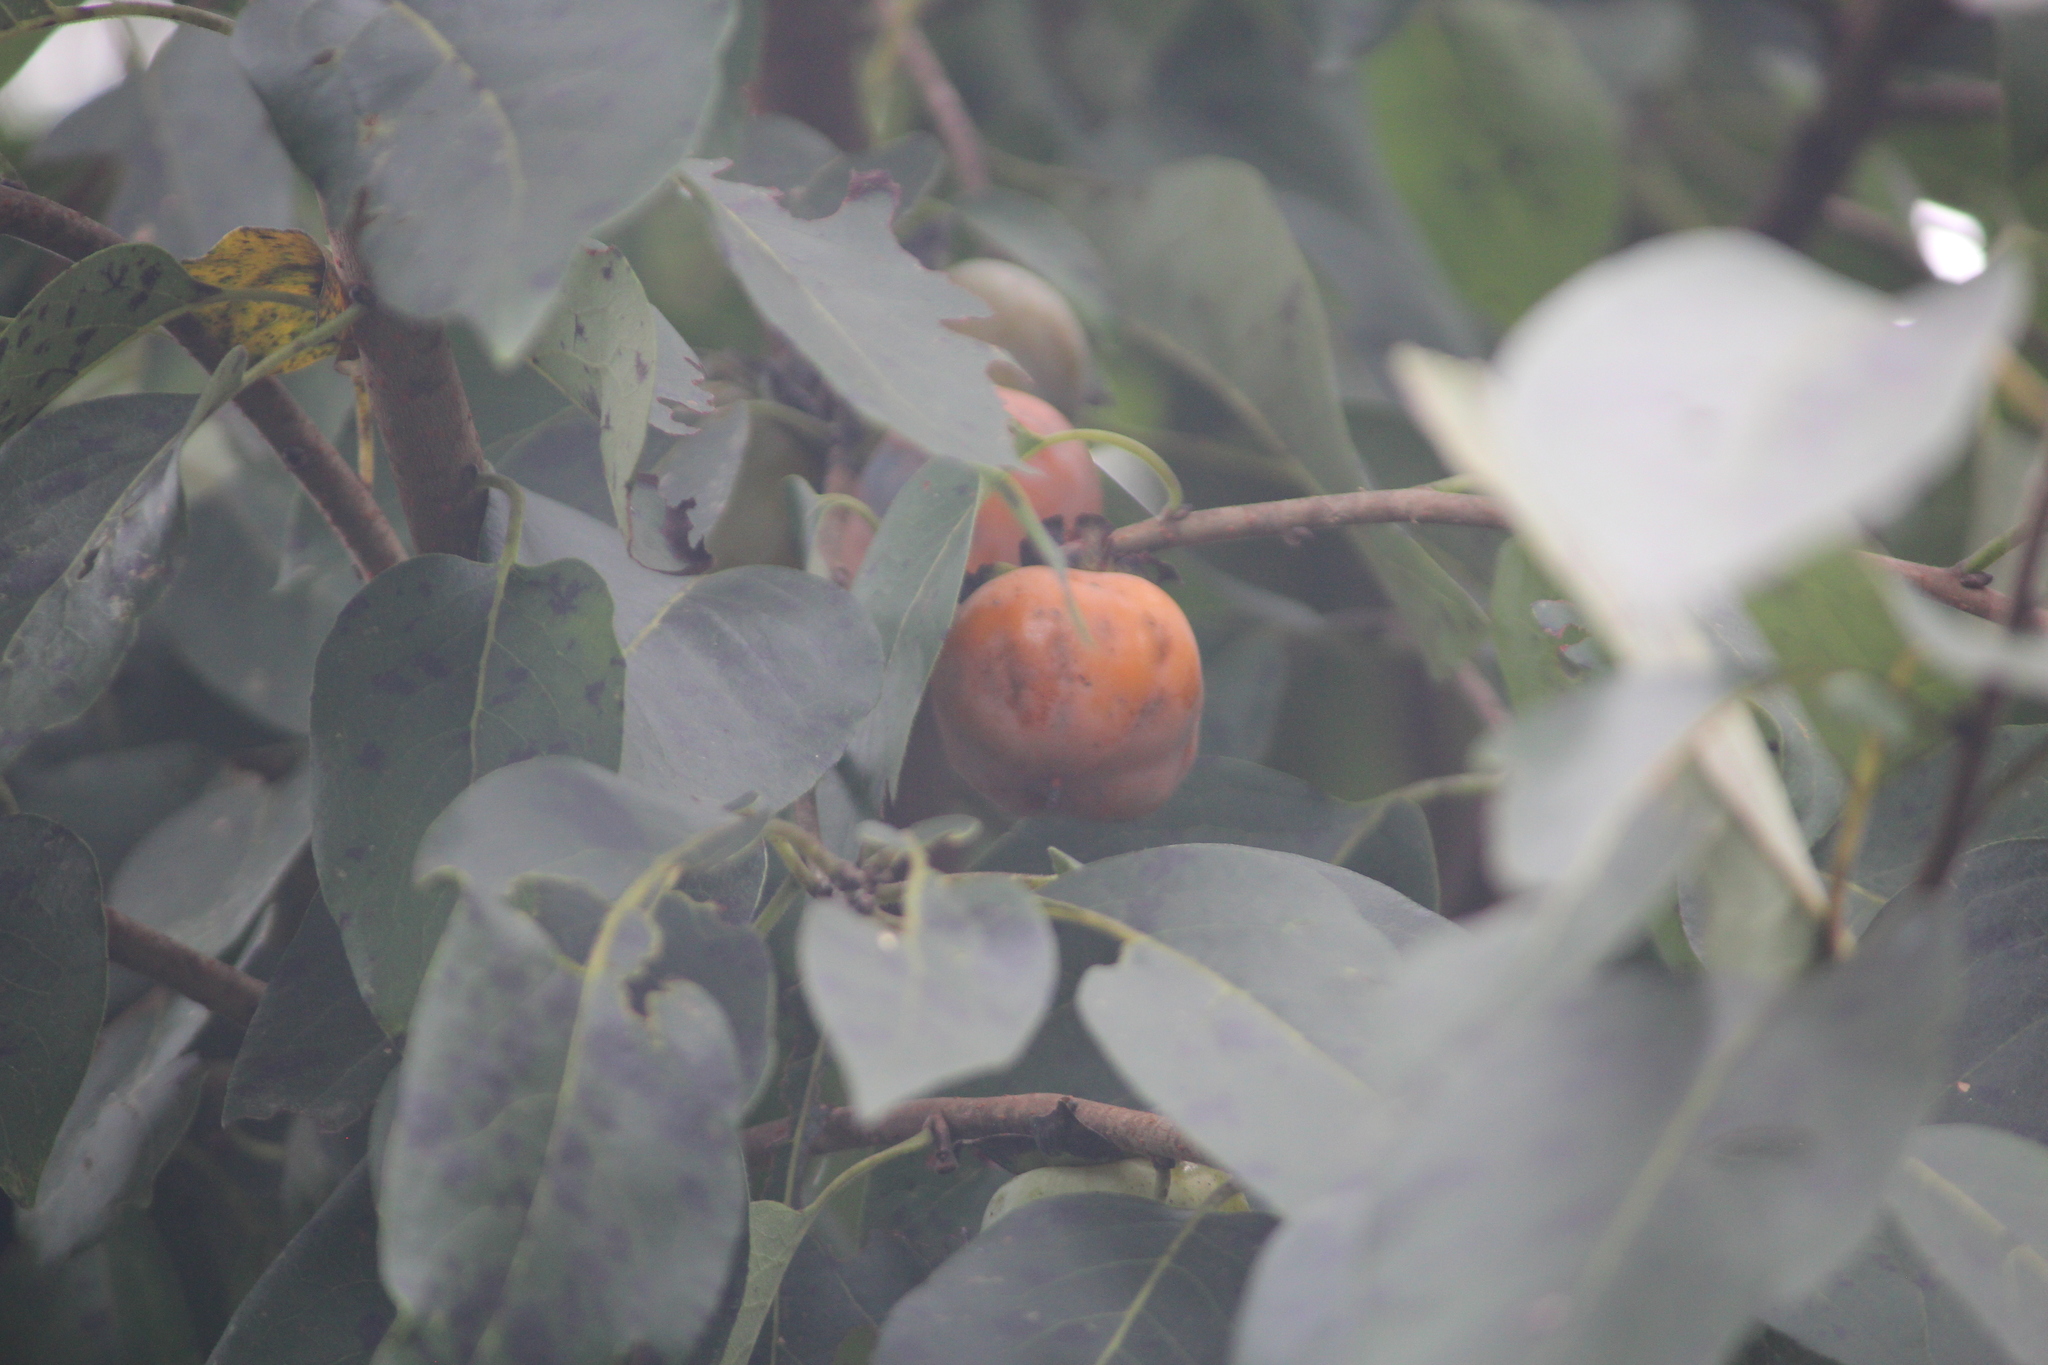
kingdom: Plantae
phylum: Tracheophyta
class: Magnoliopsida
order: Ericales
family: Ebenaceae
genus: Diospyros
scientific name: Diospyros virginiana
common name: Persimmon
